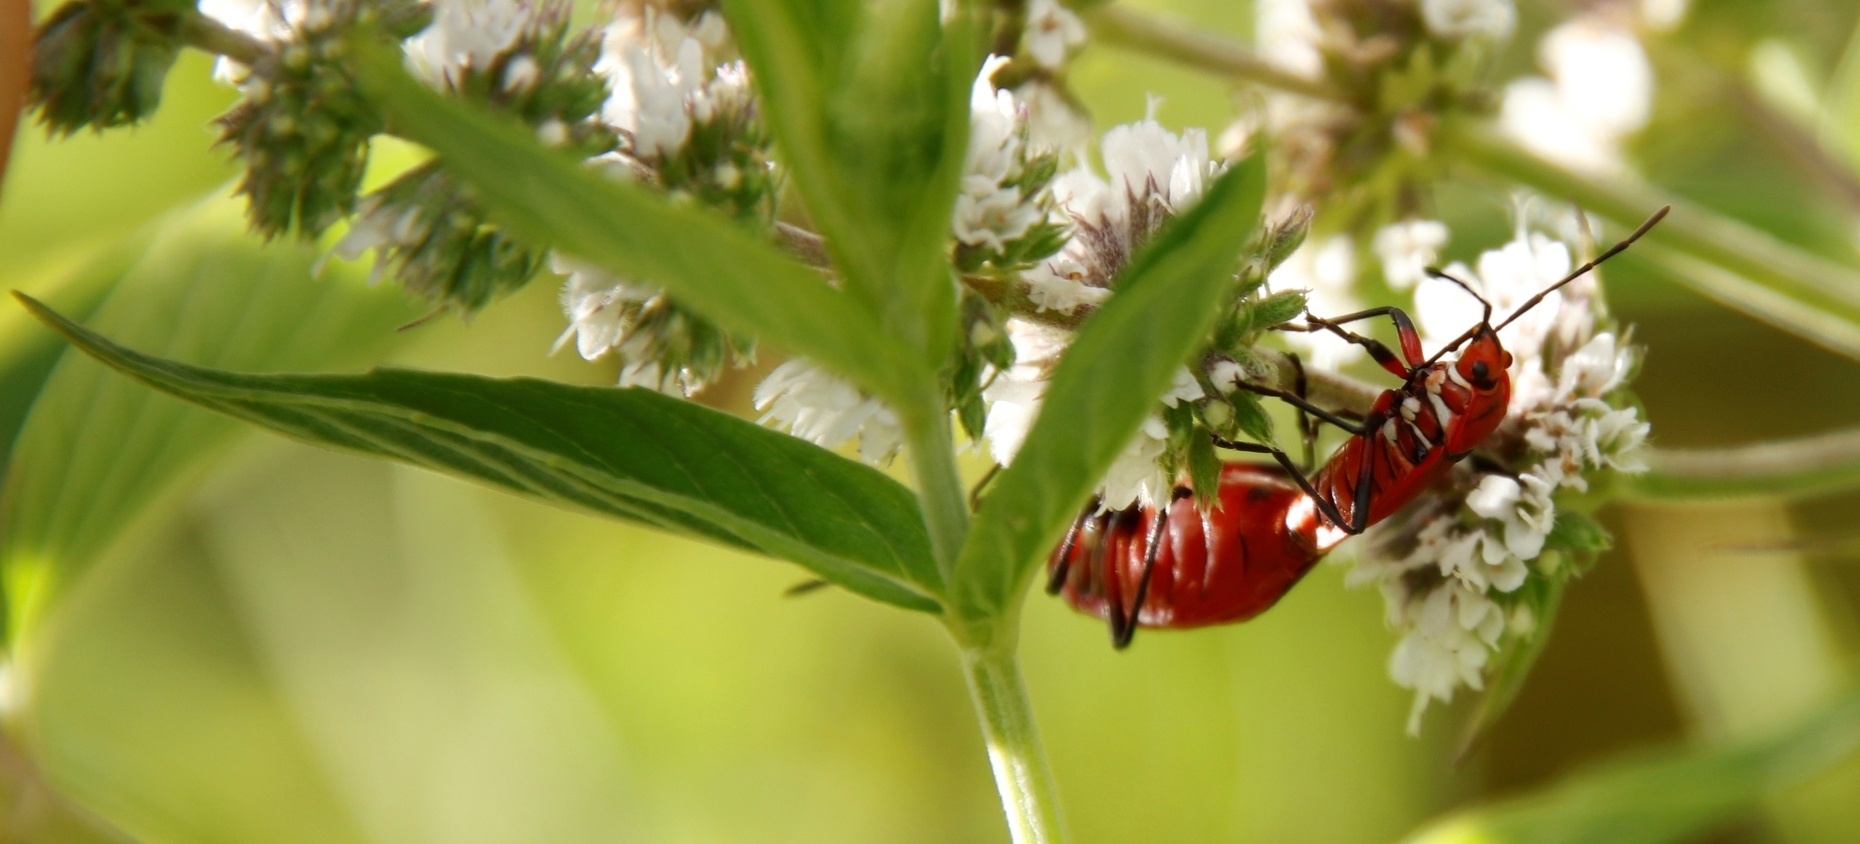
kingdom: Animalia
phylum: Arthropoda
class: Insecta
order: Hemiptera
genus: Cenaeus
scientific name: Cenaeus
